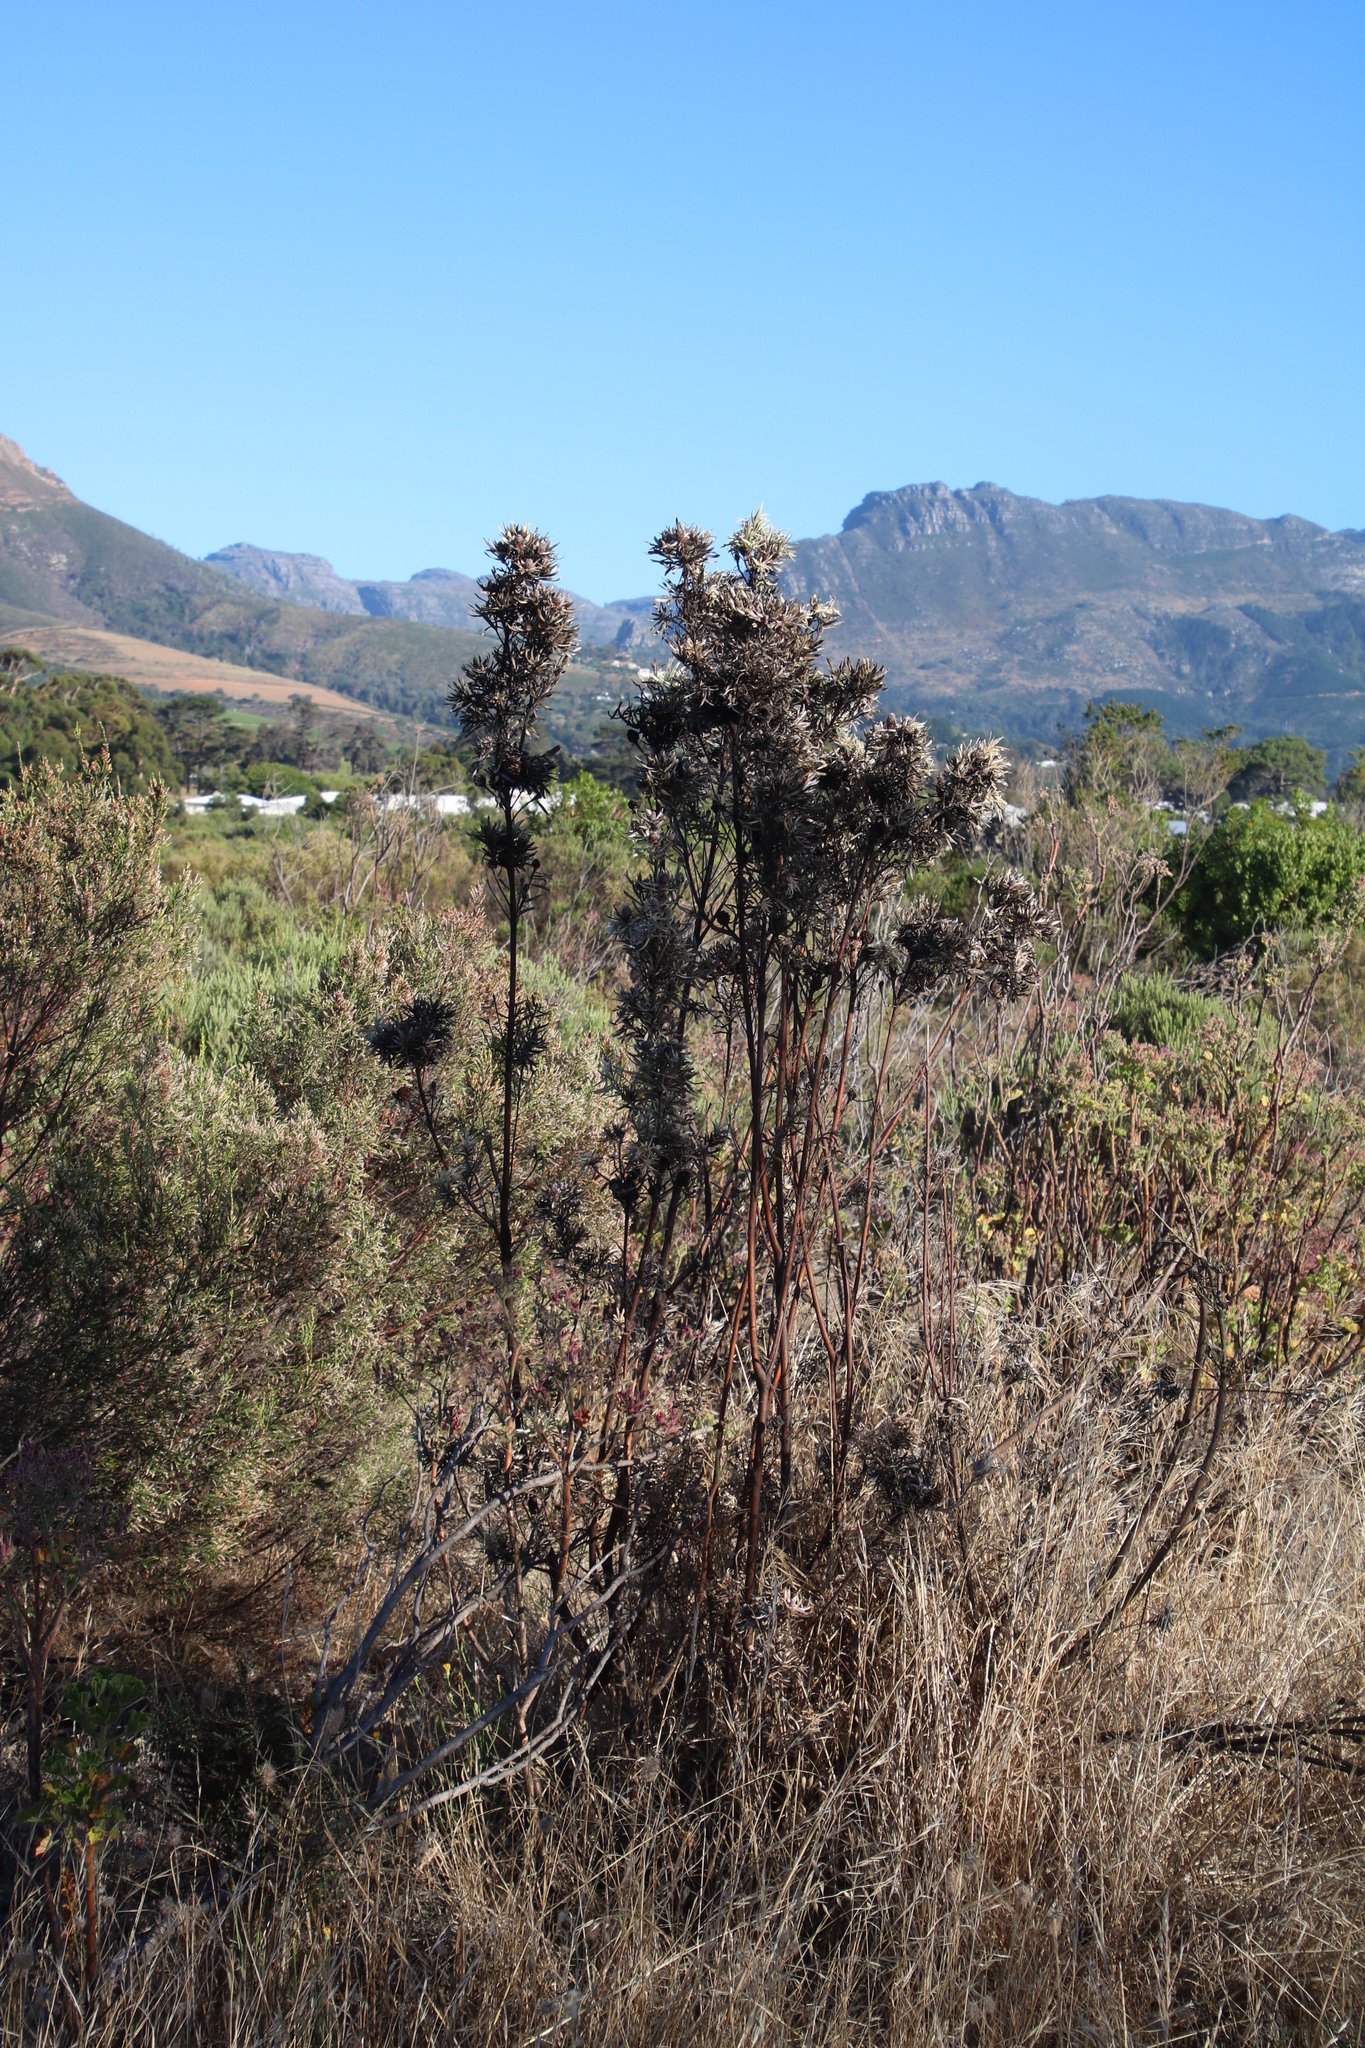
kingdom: Plantae
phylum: Tracheophyta
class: Magnoliopsida
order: Proteales
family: Proteaceae
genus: Leucadendron
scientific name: Leucadendron floridum
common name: Flats conebush
